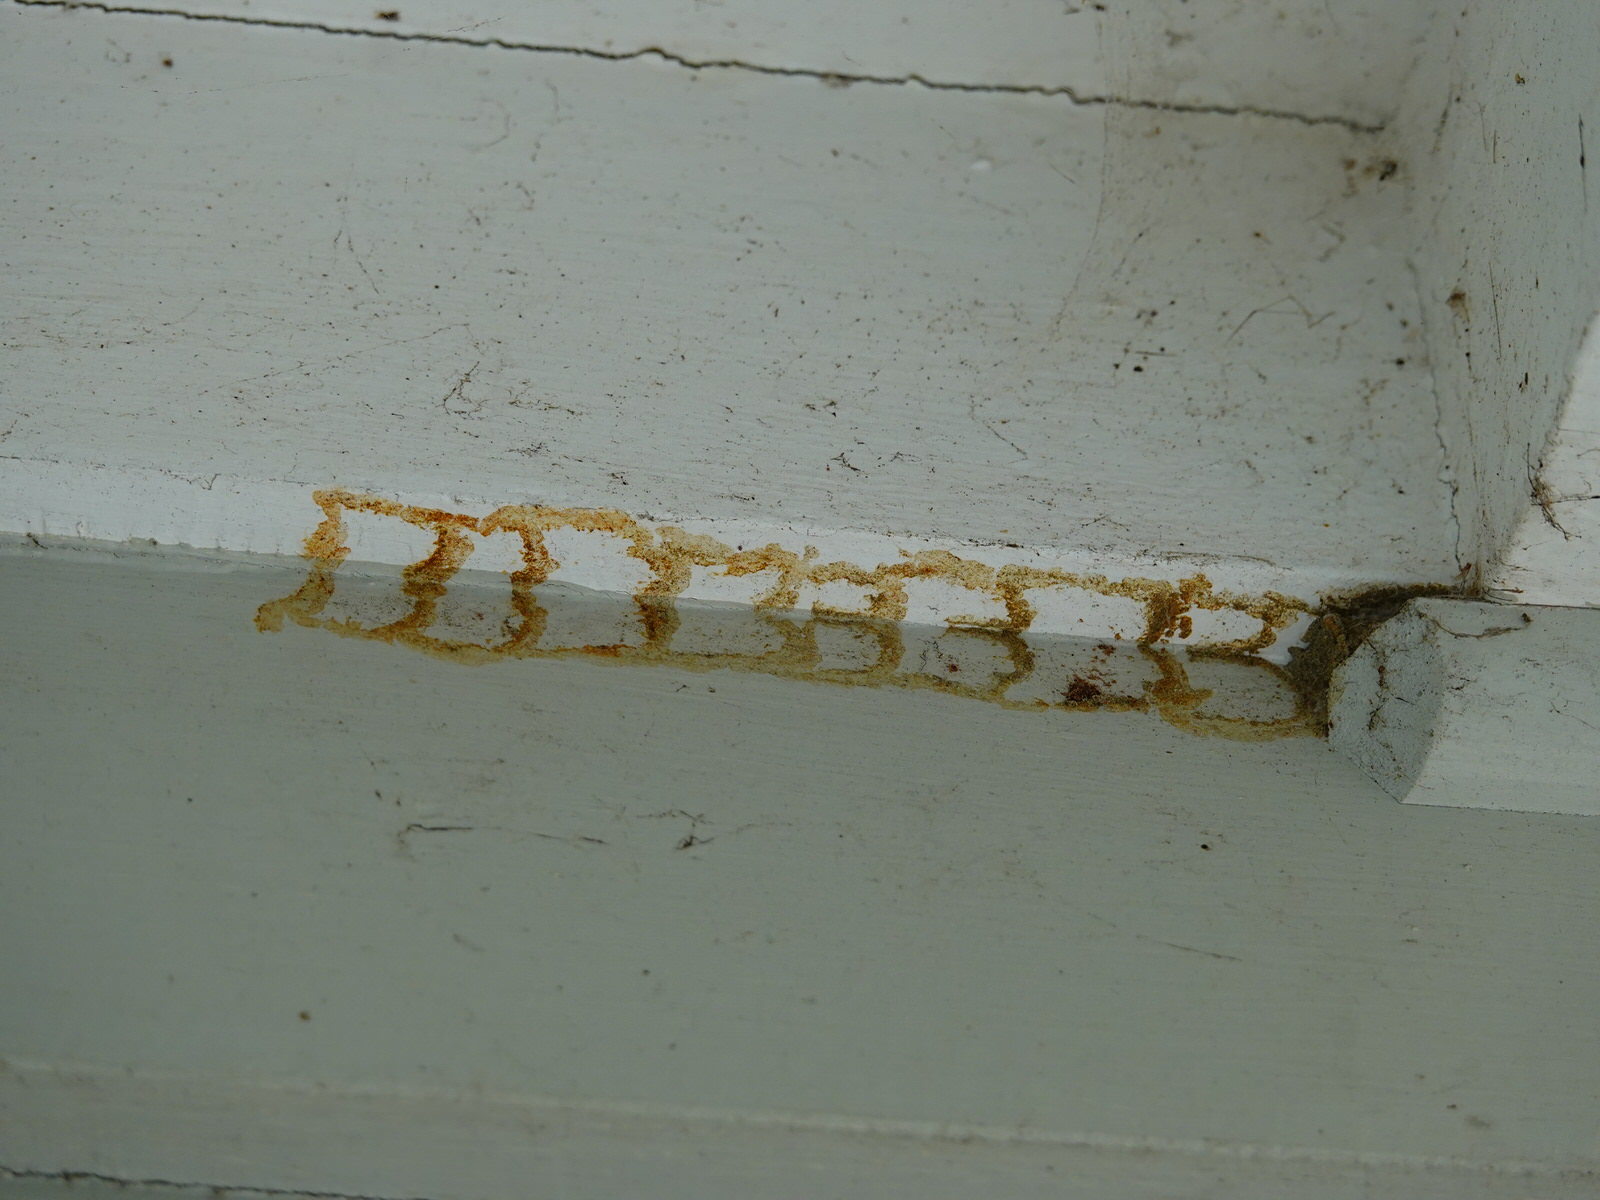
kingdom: Animalia
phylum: Arthropoda
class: Insecta
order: Hymenoptera
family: Crabronidae
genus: Pison
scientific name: Pison spinolae
